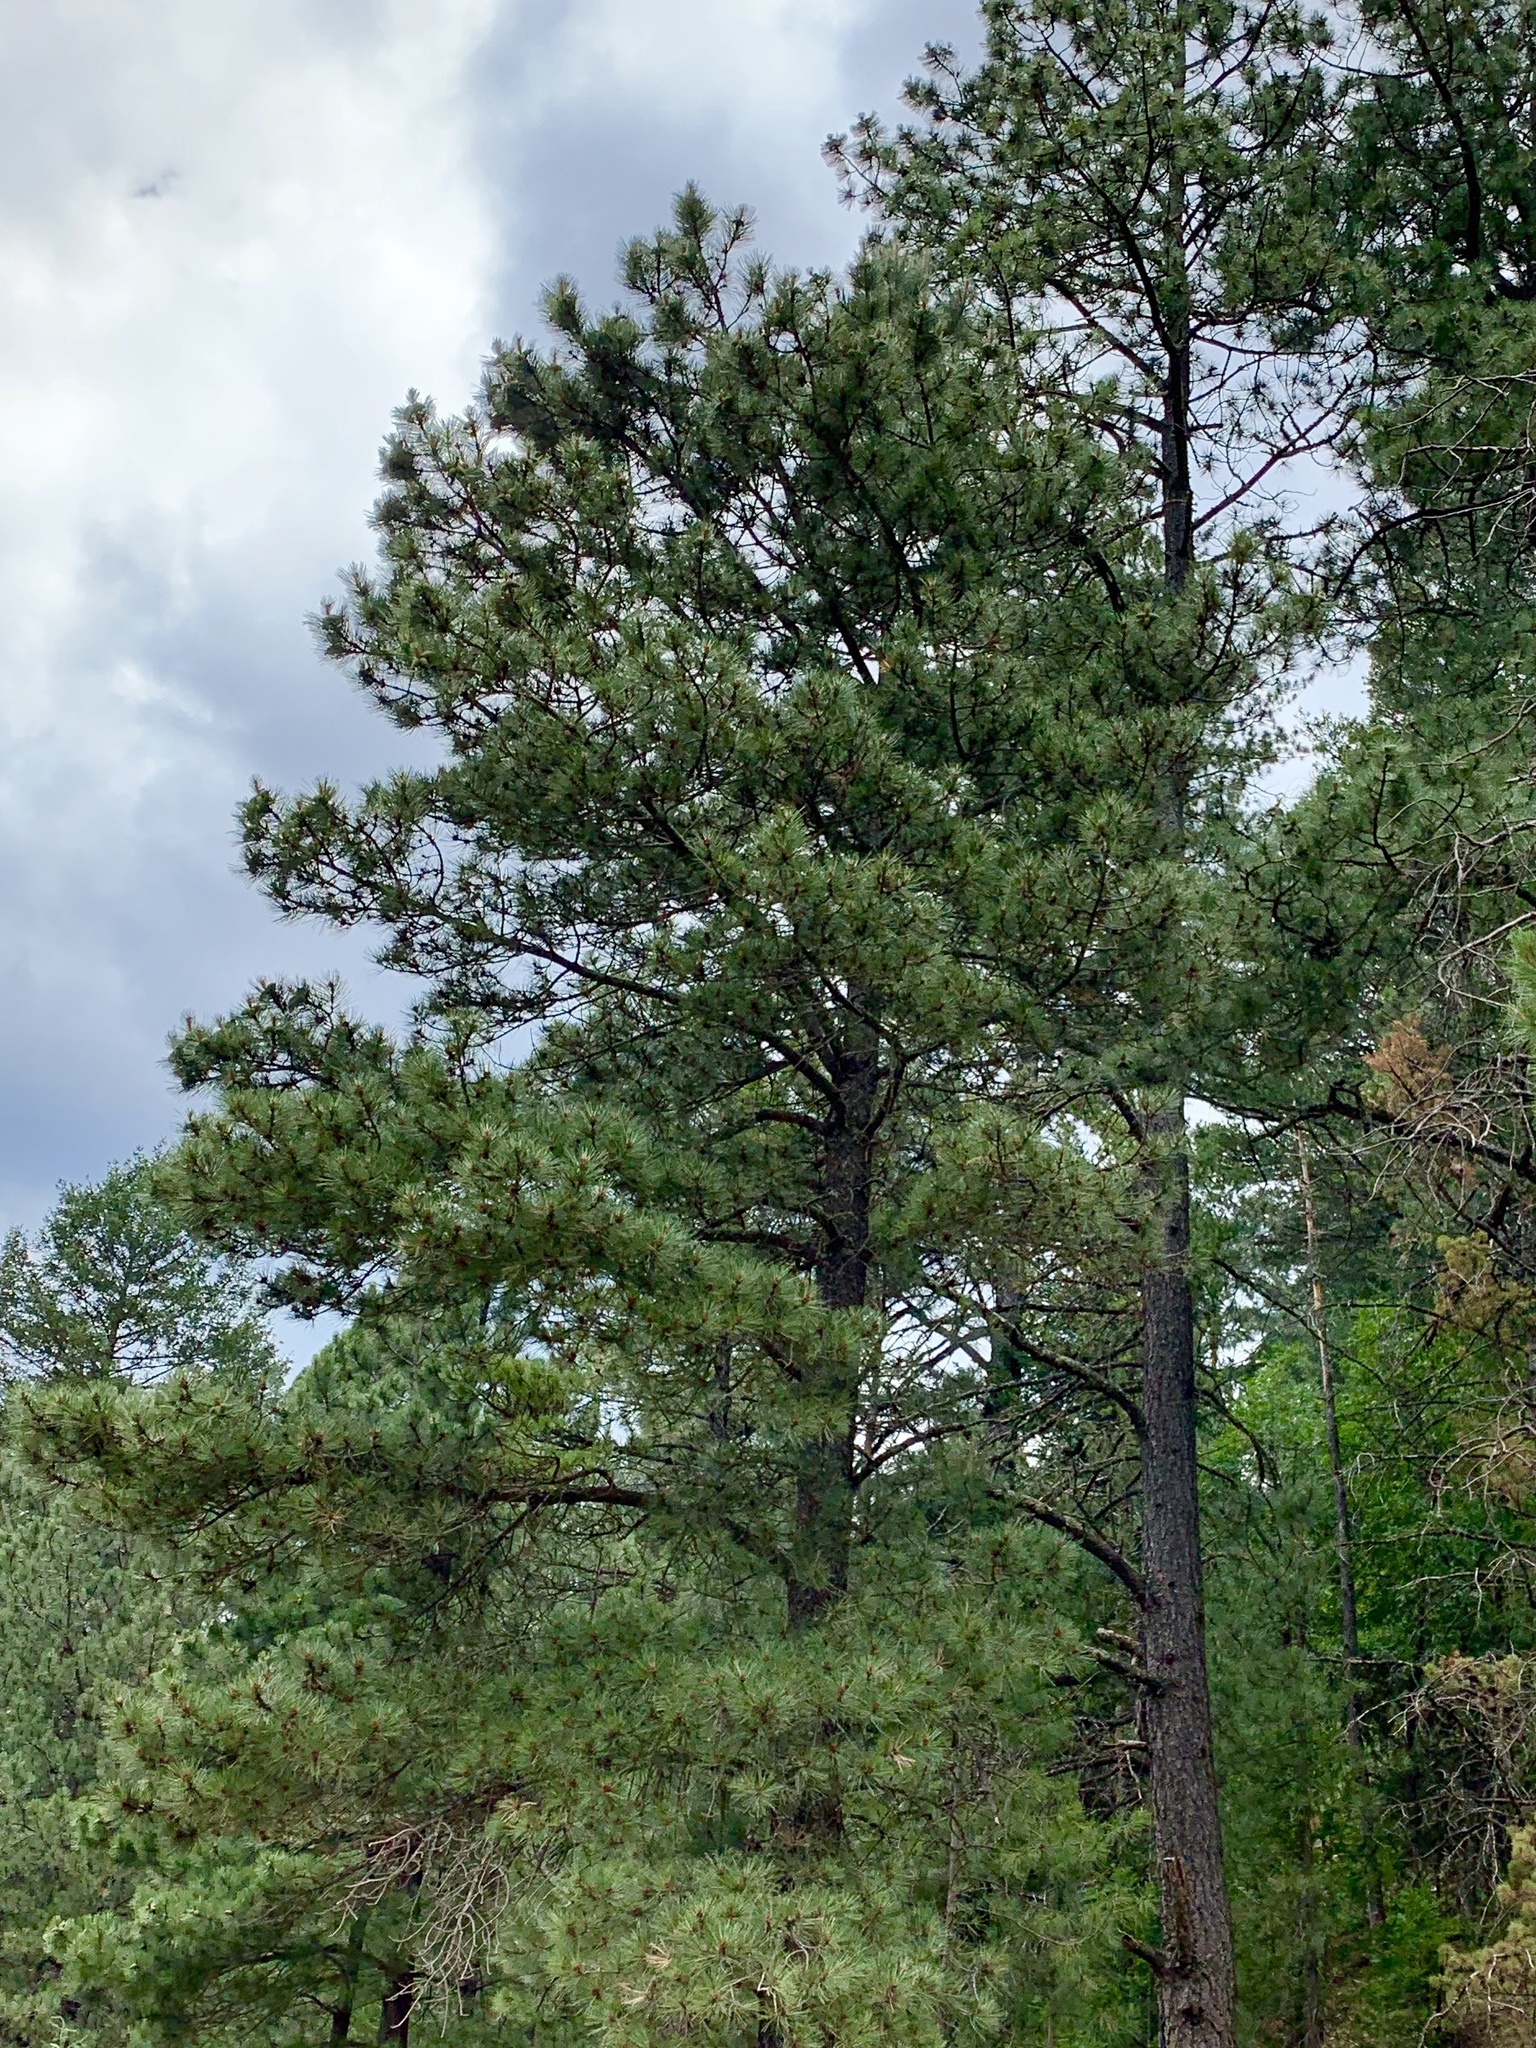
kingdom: Plantae
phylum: Tracheophyta
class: Pinopsida
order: Pinales
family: Pinaceae
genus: Pinus
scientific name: Pinus ponderosa
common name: Western yellow-pine
